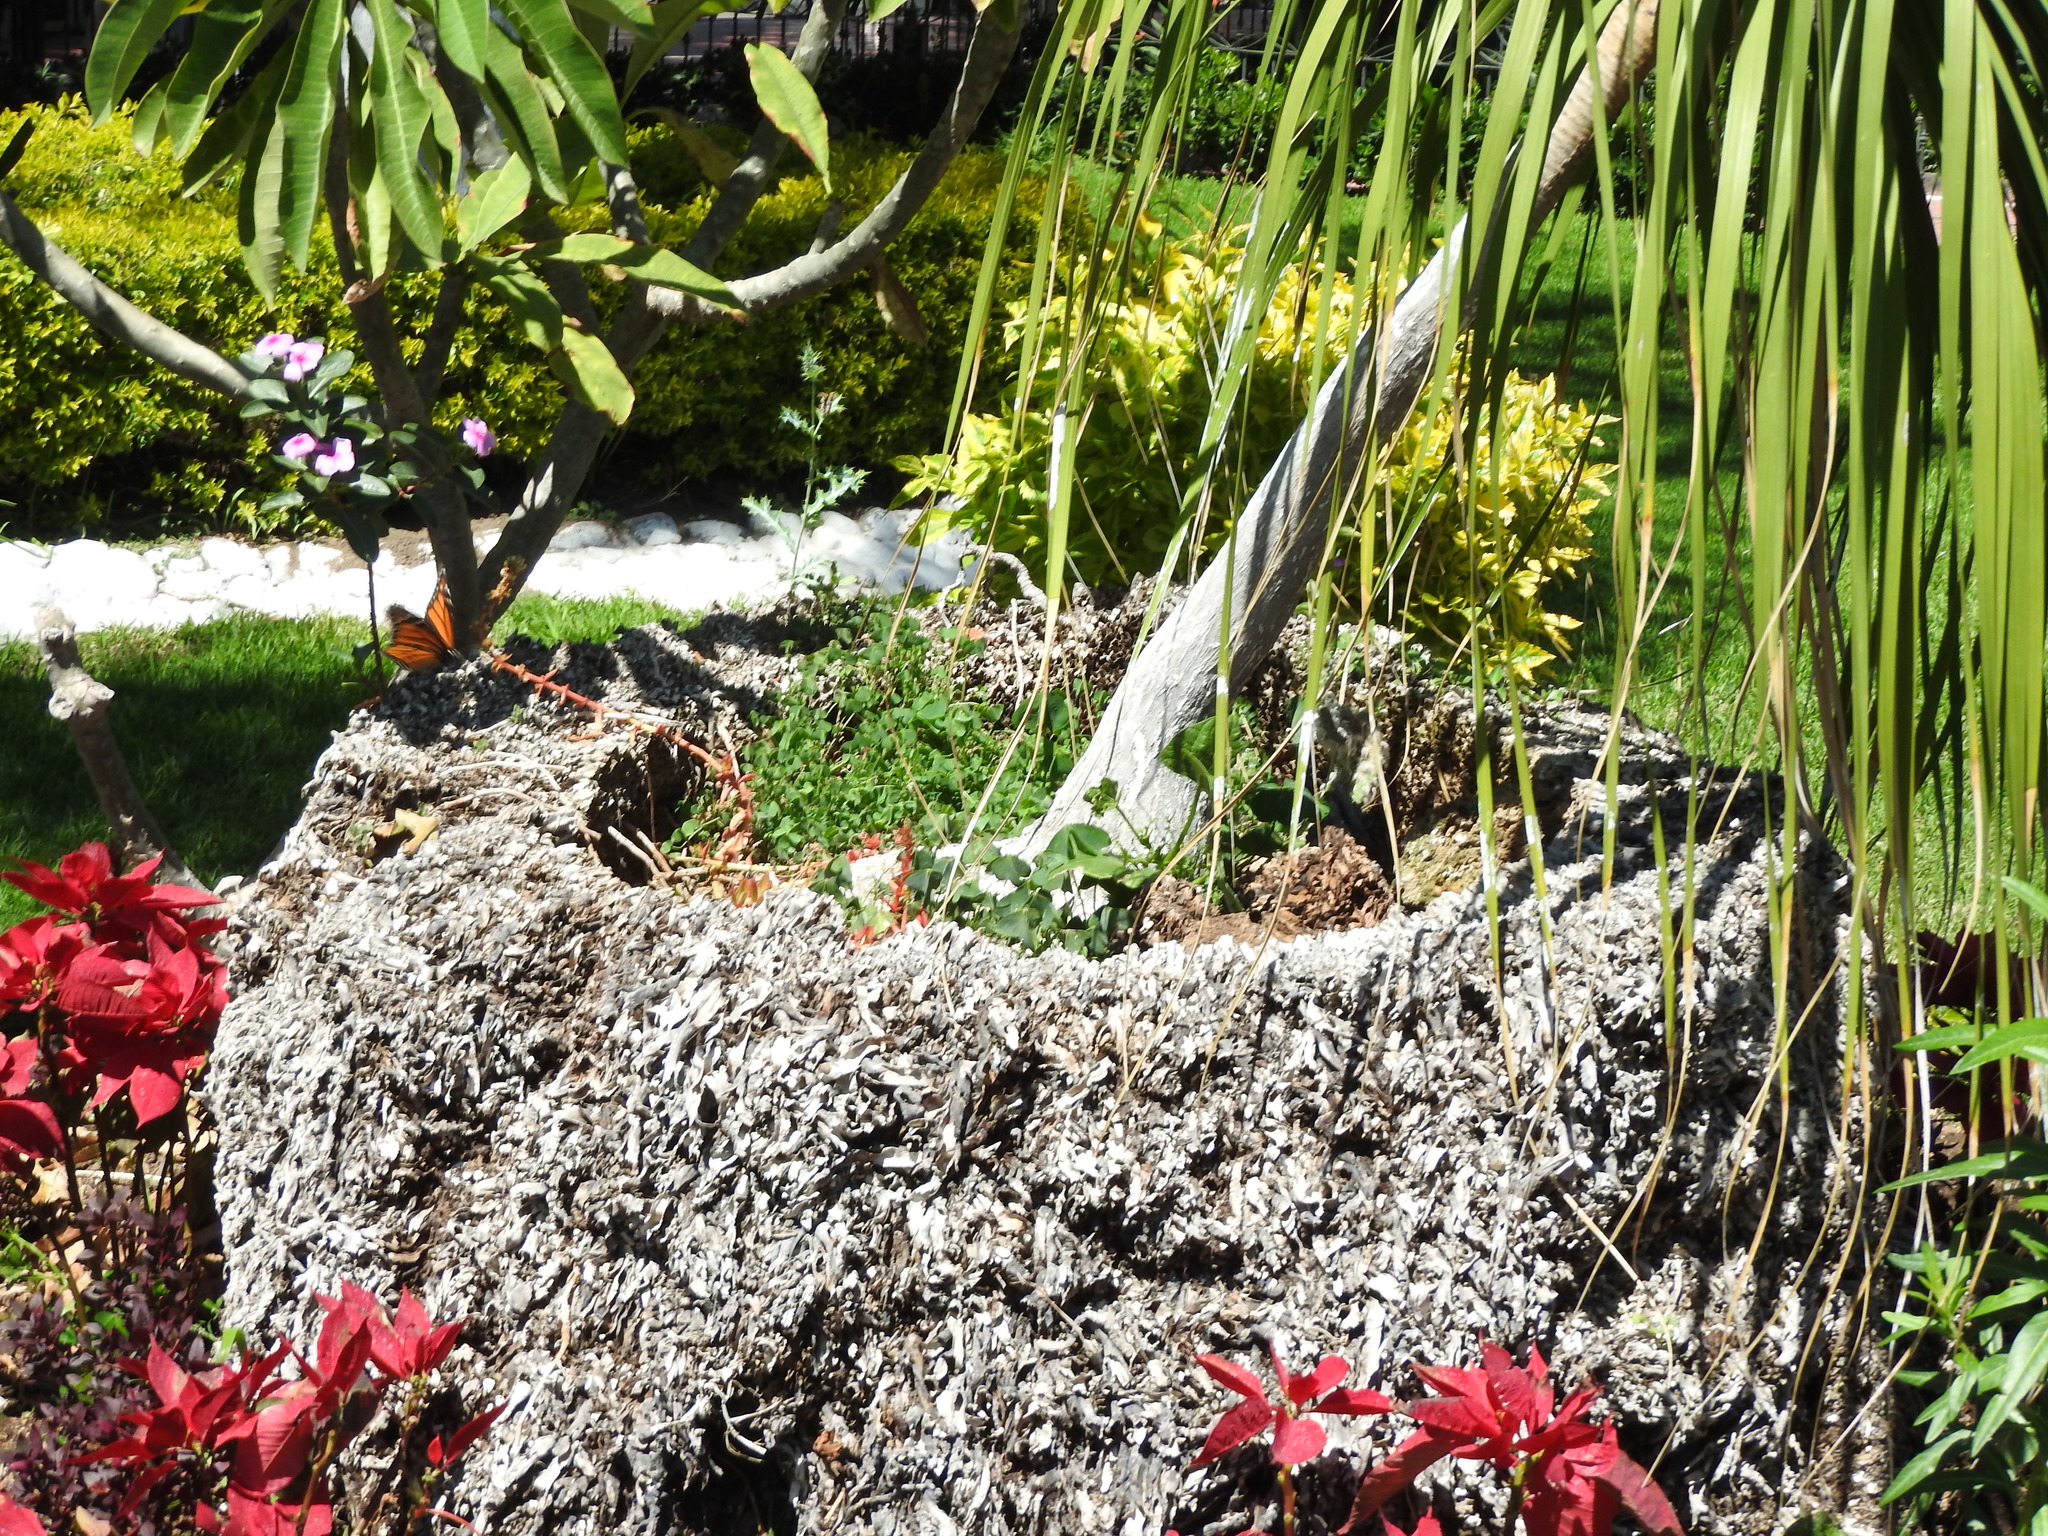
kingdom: Animalia
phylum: Arthropoda
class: Insecta
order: Lepidoptera
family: Nymphalidae
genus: Danaus
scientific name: Danaus plexippus
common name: Monarch
